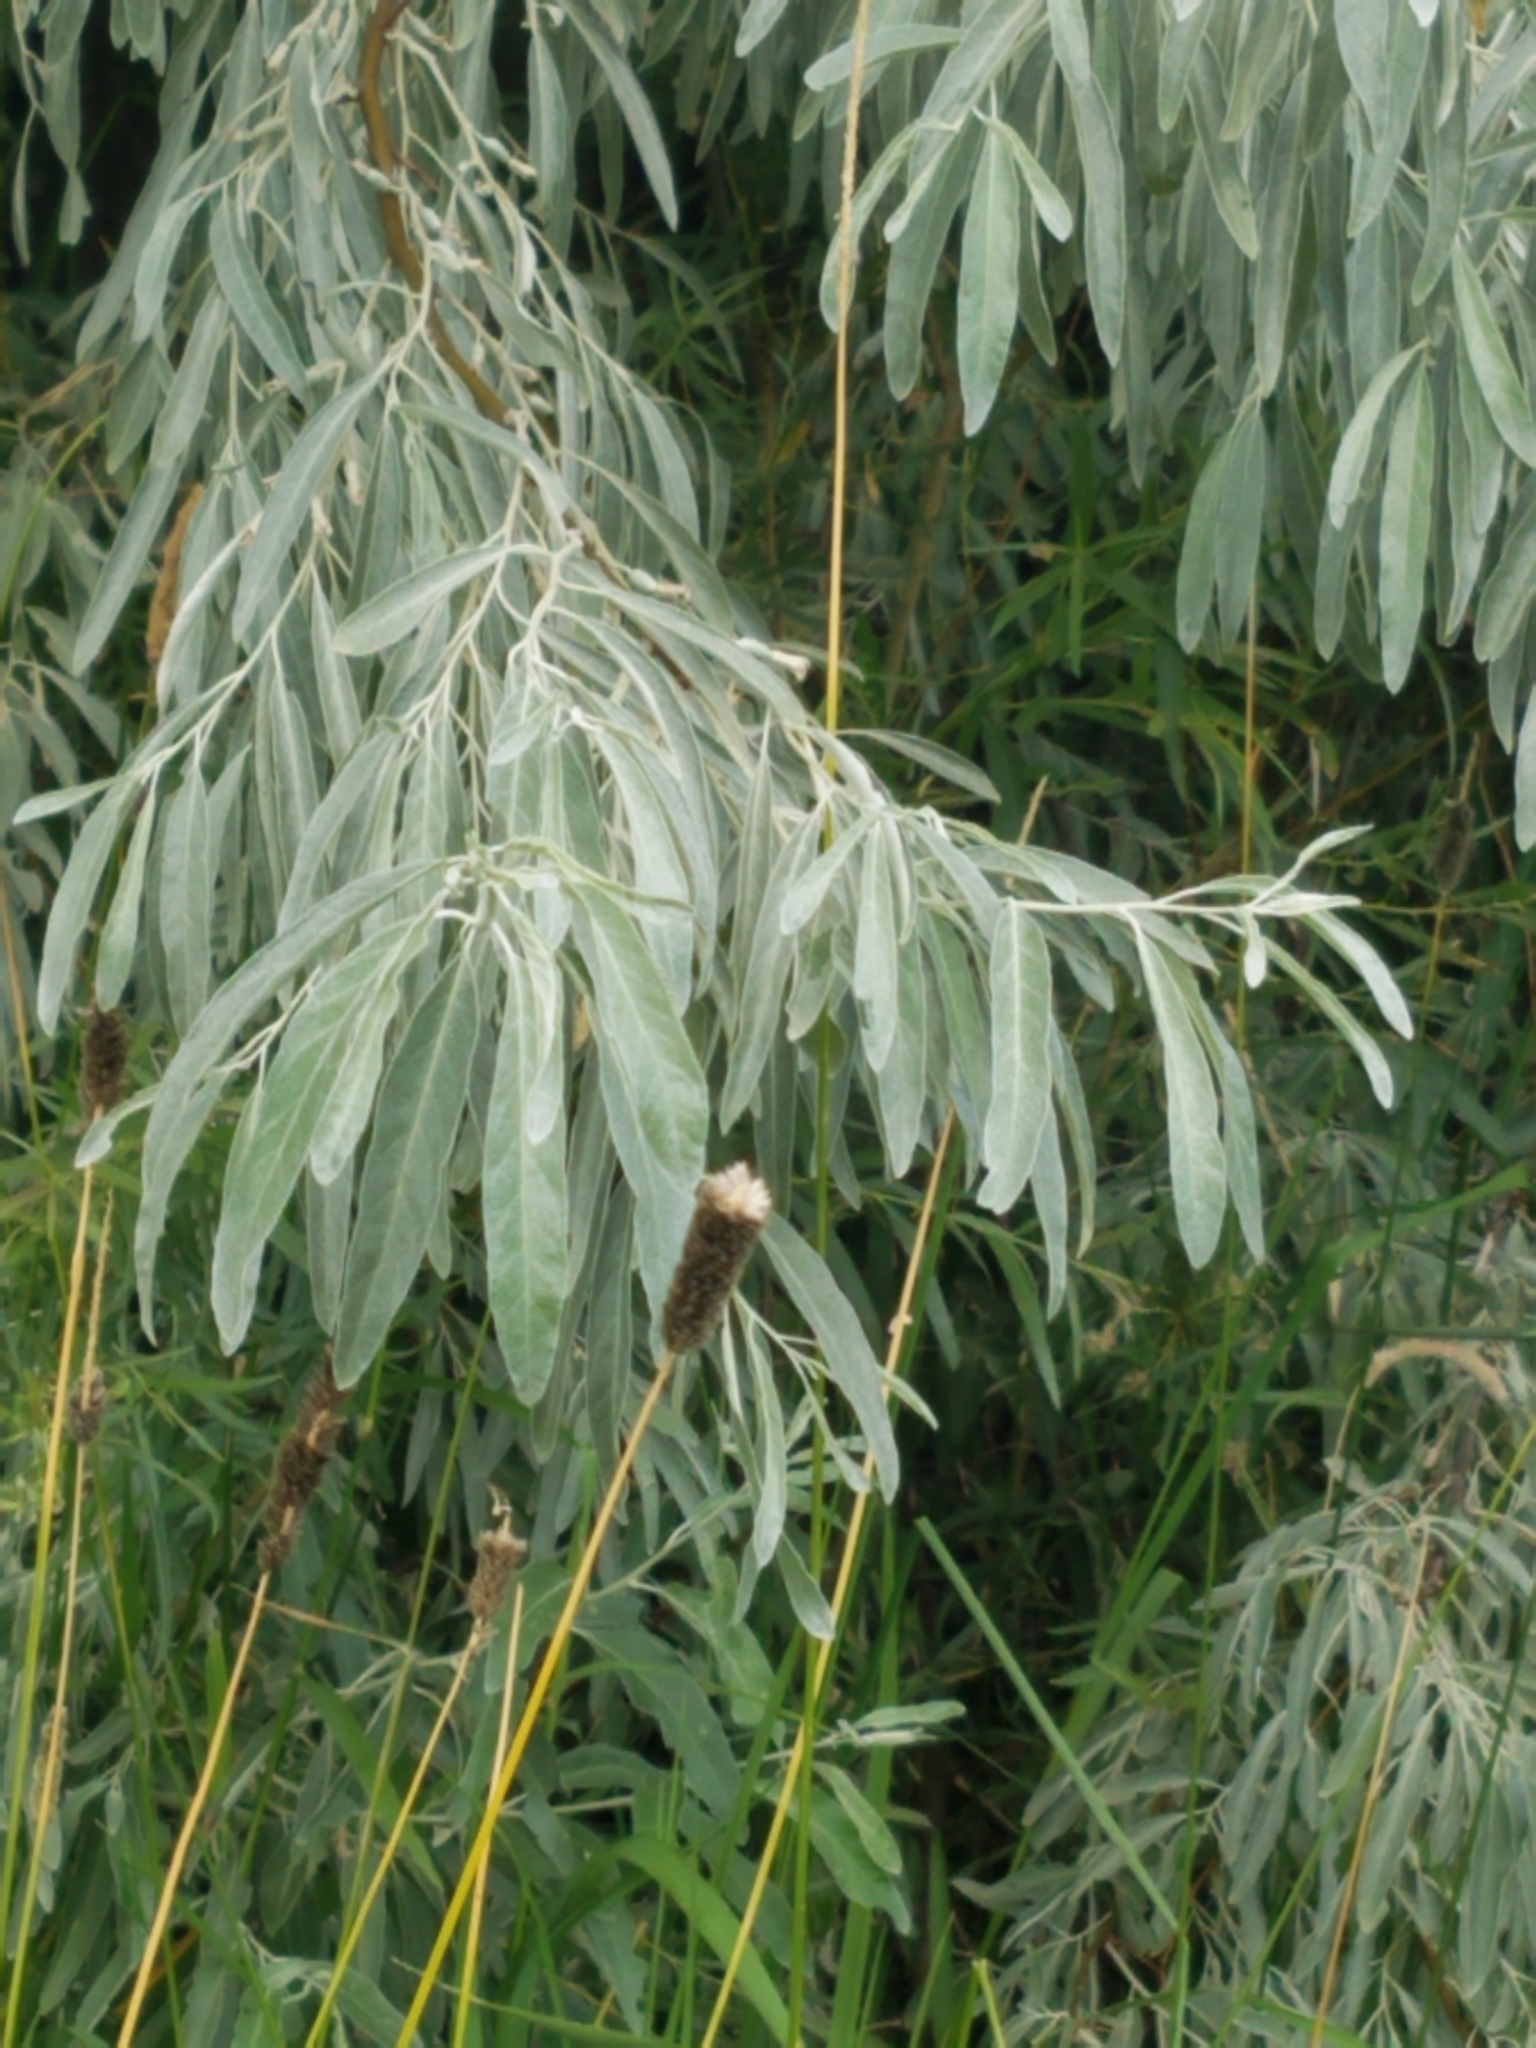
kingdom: Plantae
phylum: Tracheophyta
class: Magnoliopsida
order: Rosales
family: Elaeagnaceae
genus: Elaeagnus
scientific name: Elaeagnus angustifolia
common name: Russian olive
